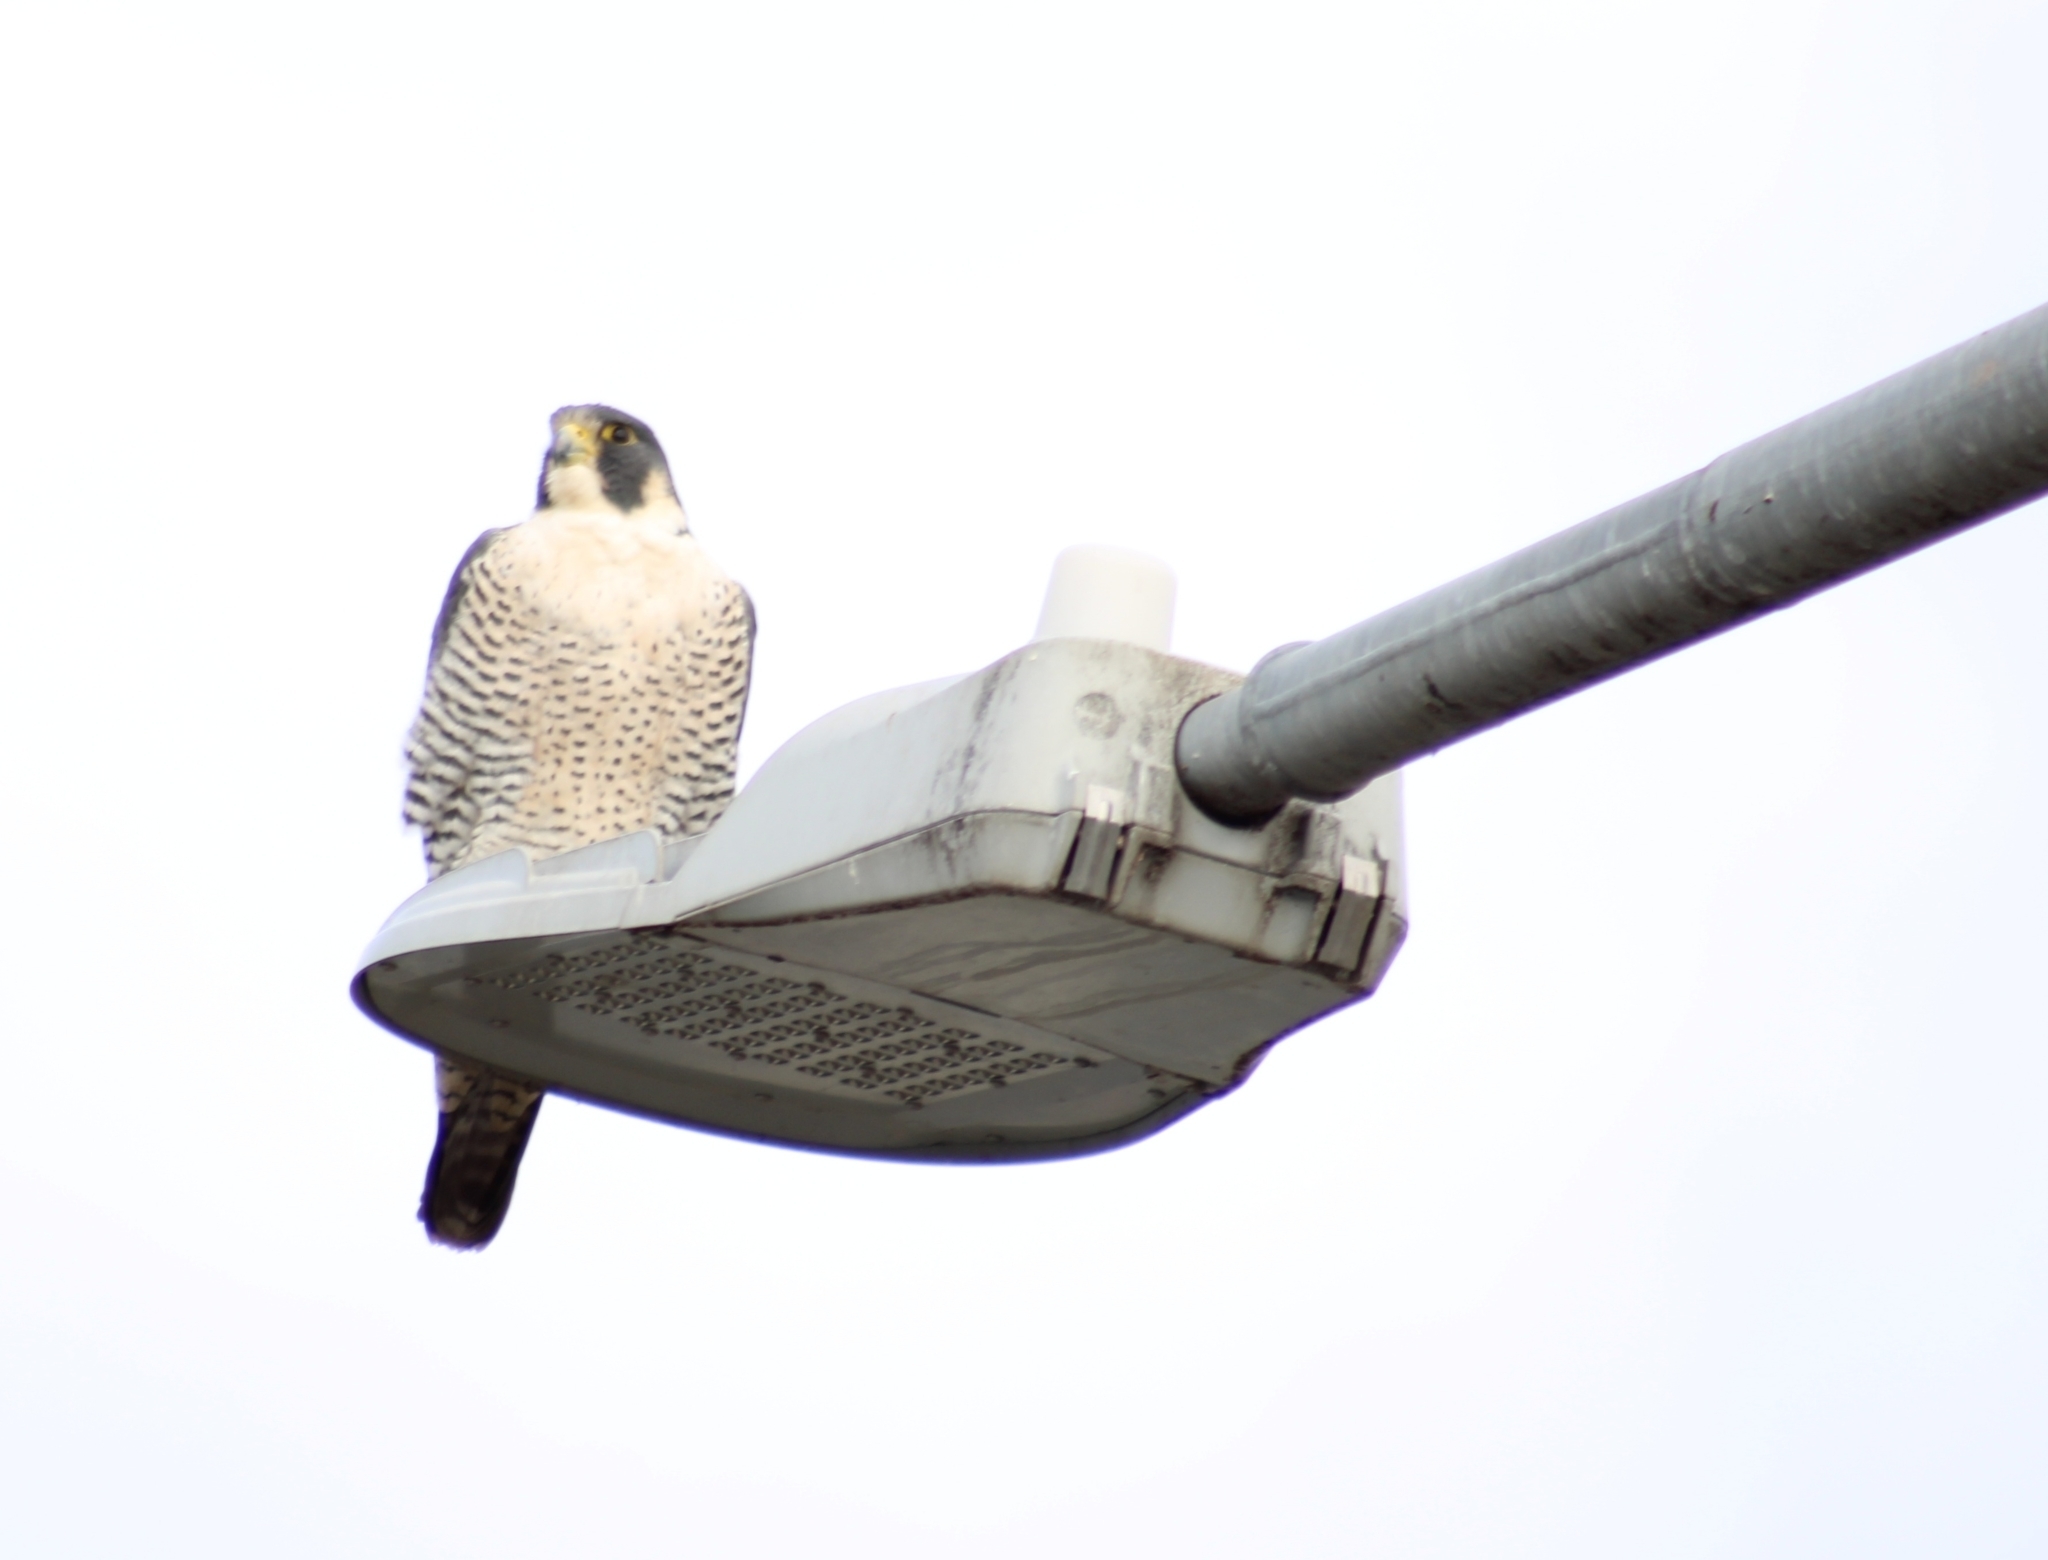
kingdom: Animalia
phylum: Chordata
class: Aves
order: Falconiformes
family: Falconidae
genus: Falco
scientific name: Falco peregrinus
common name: Peregrine falcon
